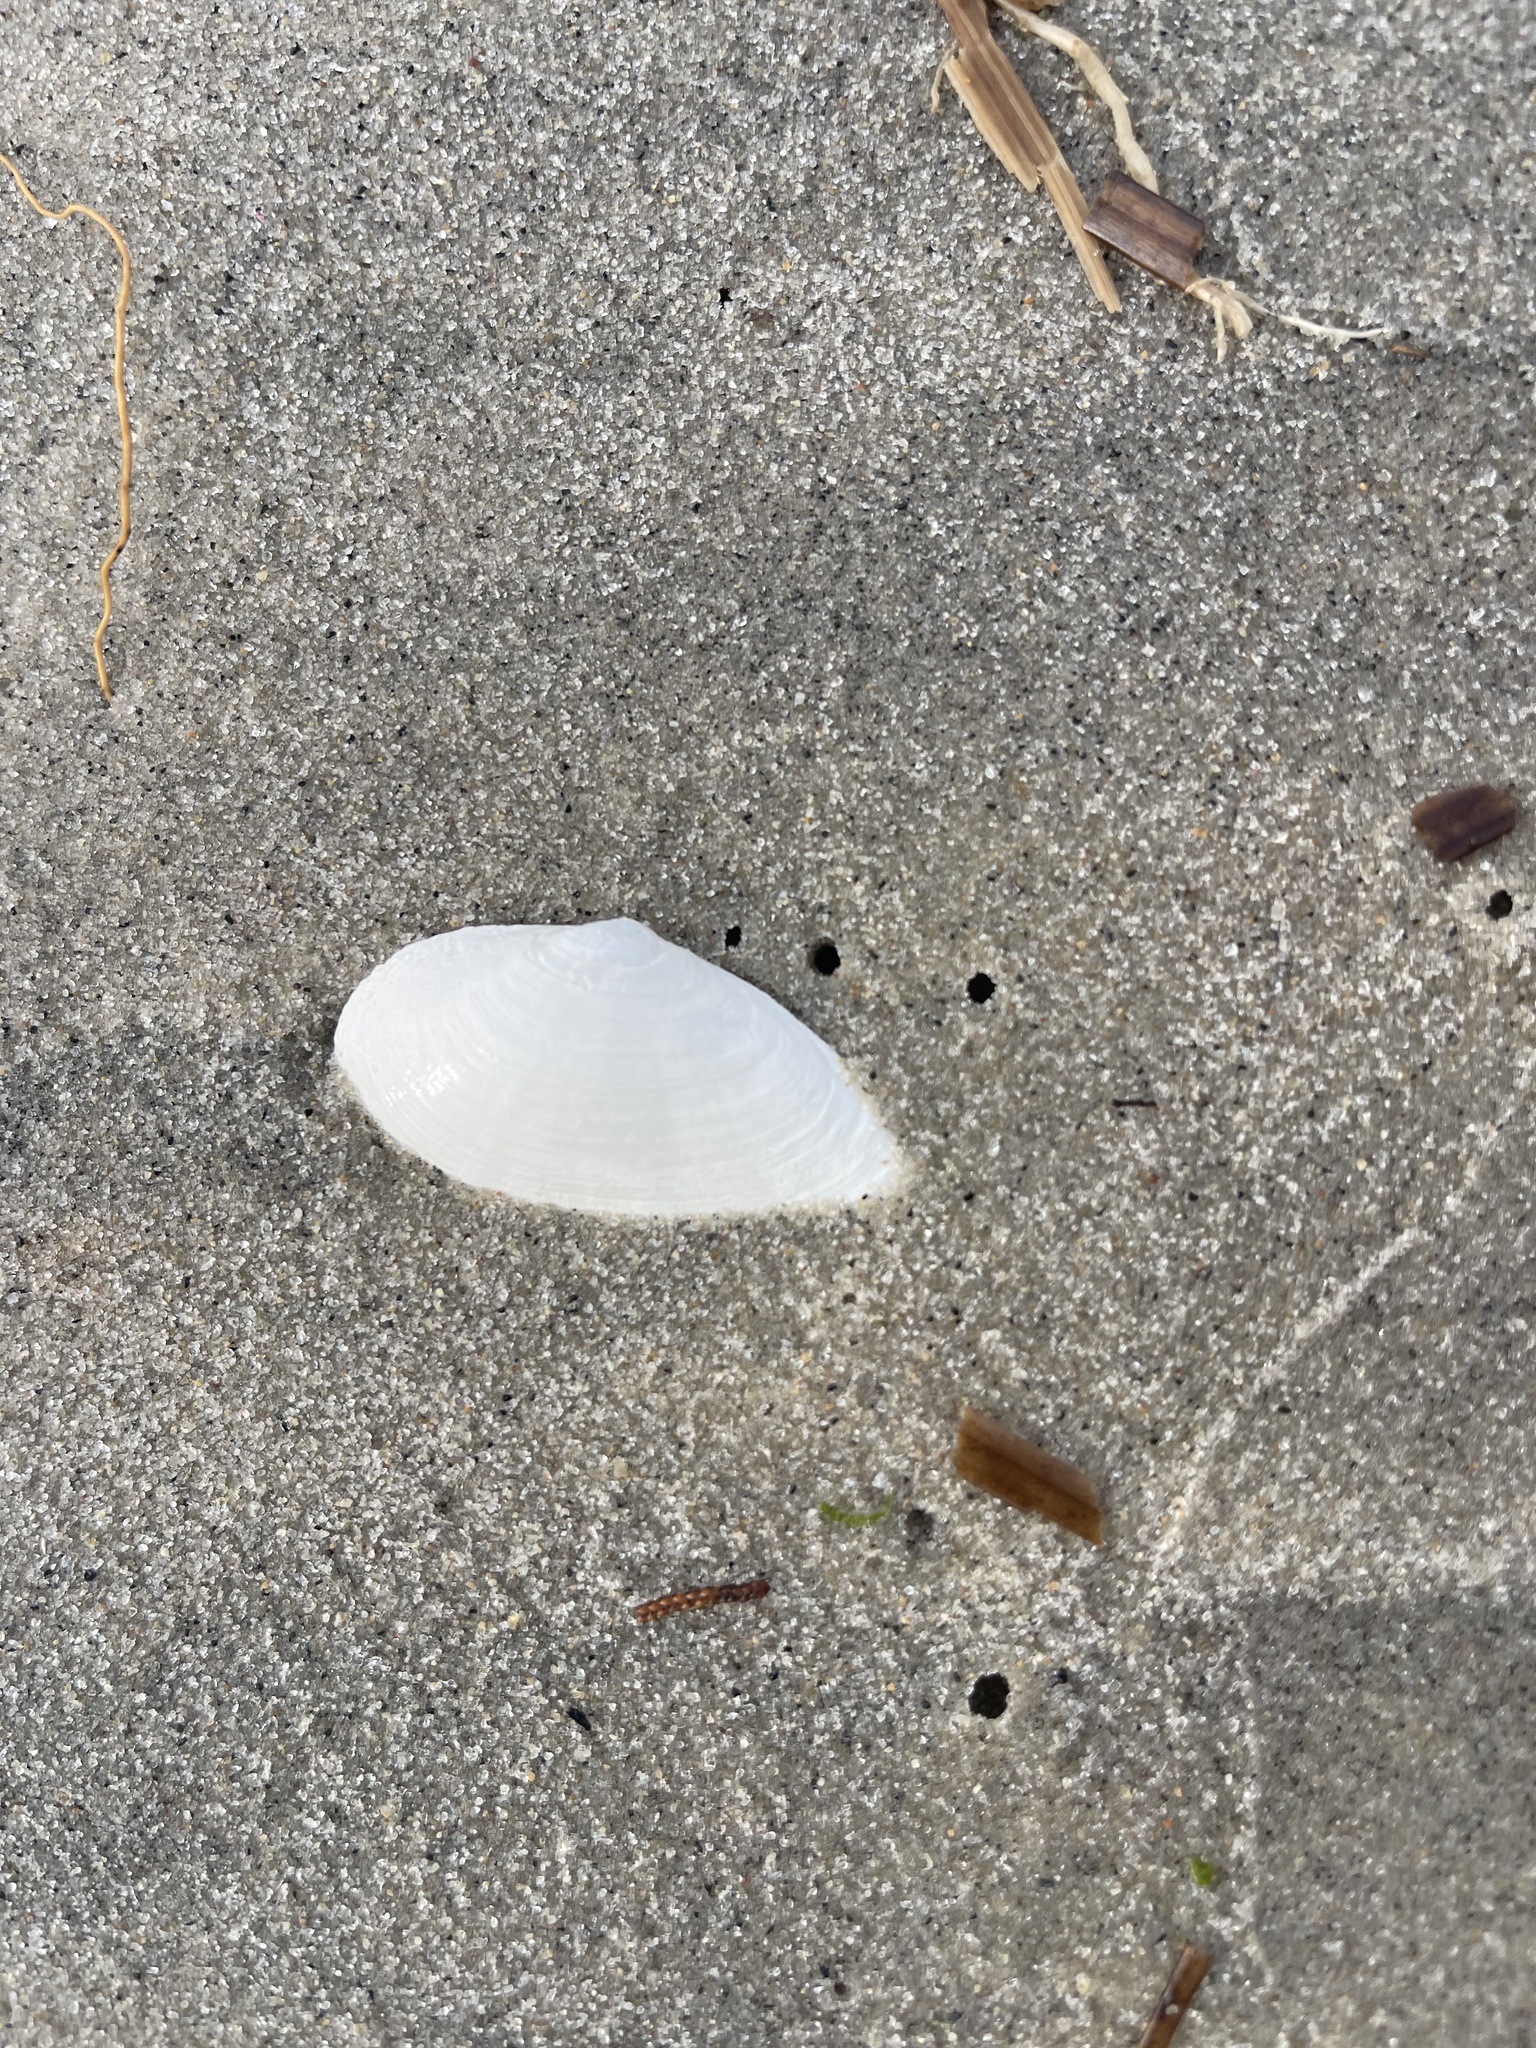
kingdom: Animalia
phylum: Mollusca
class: Bivalvia
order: Myida
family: Myidae
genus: Mya
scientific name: Mya arenaria
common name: Soft-shelled clam
